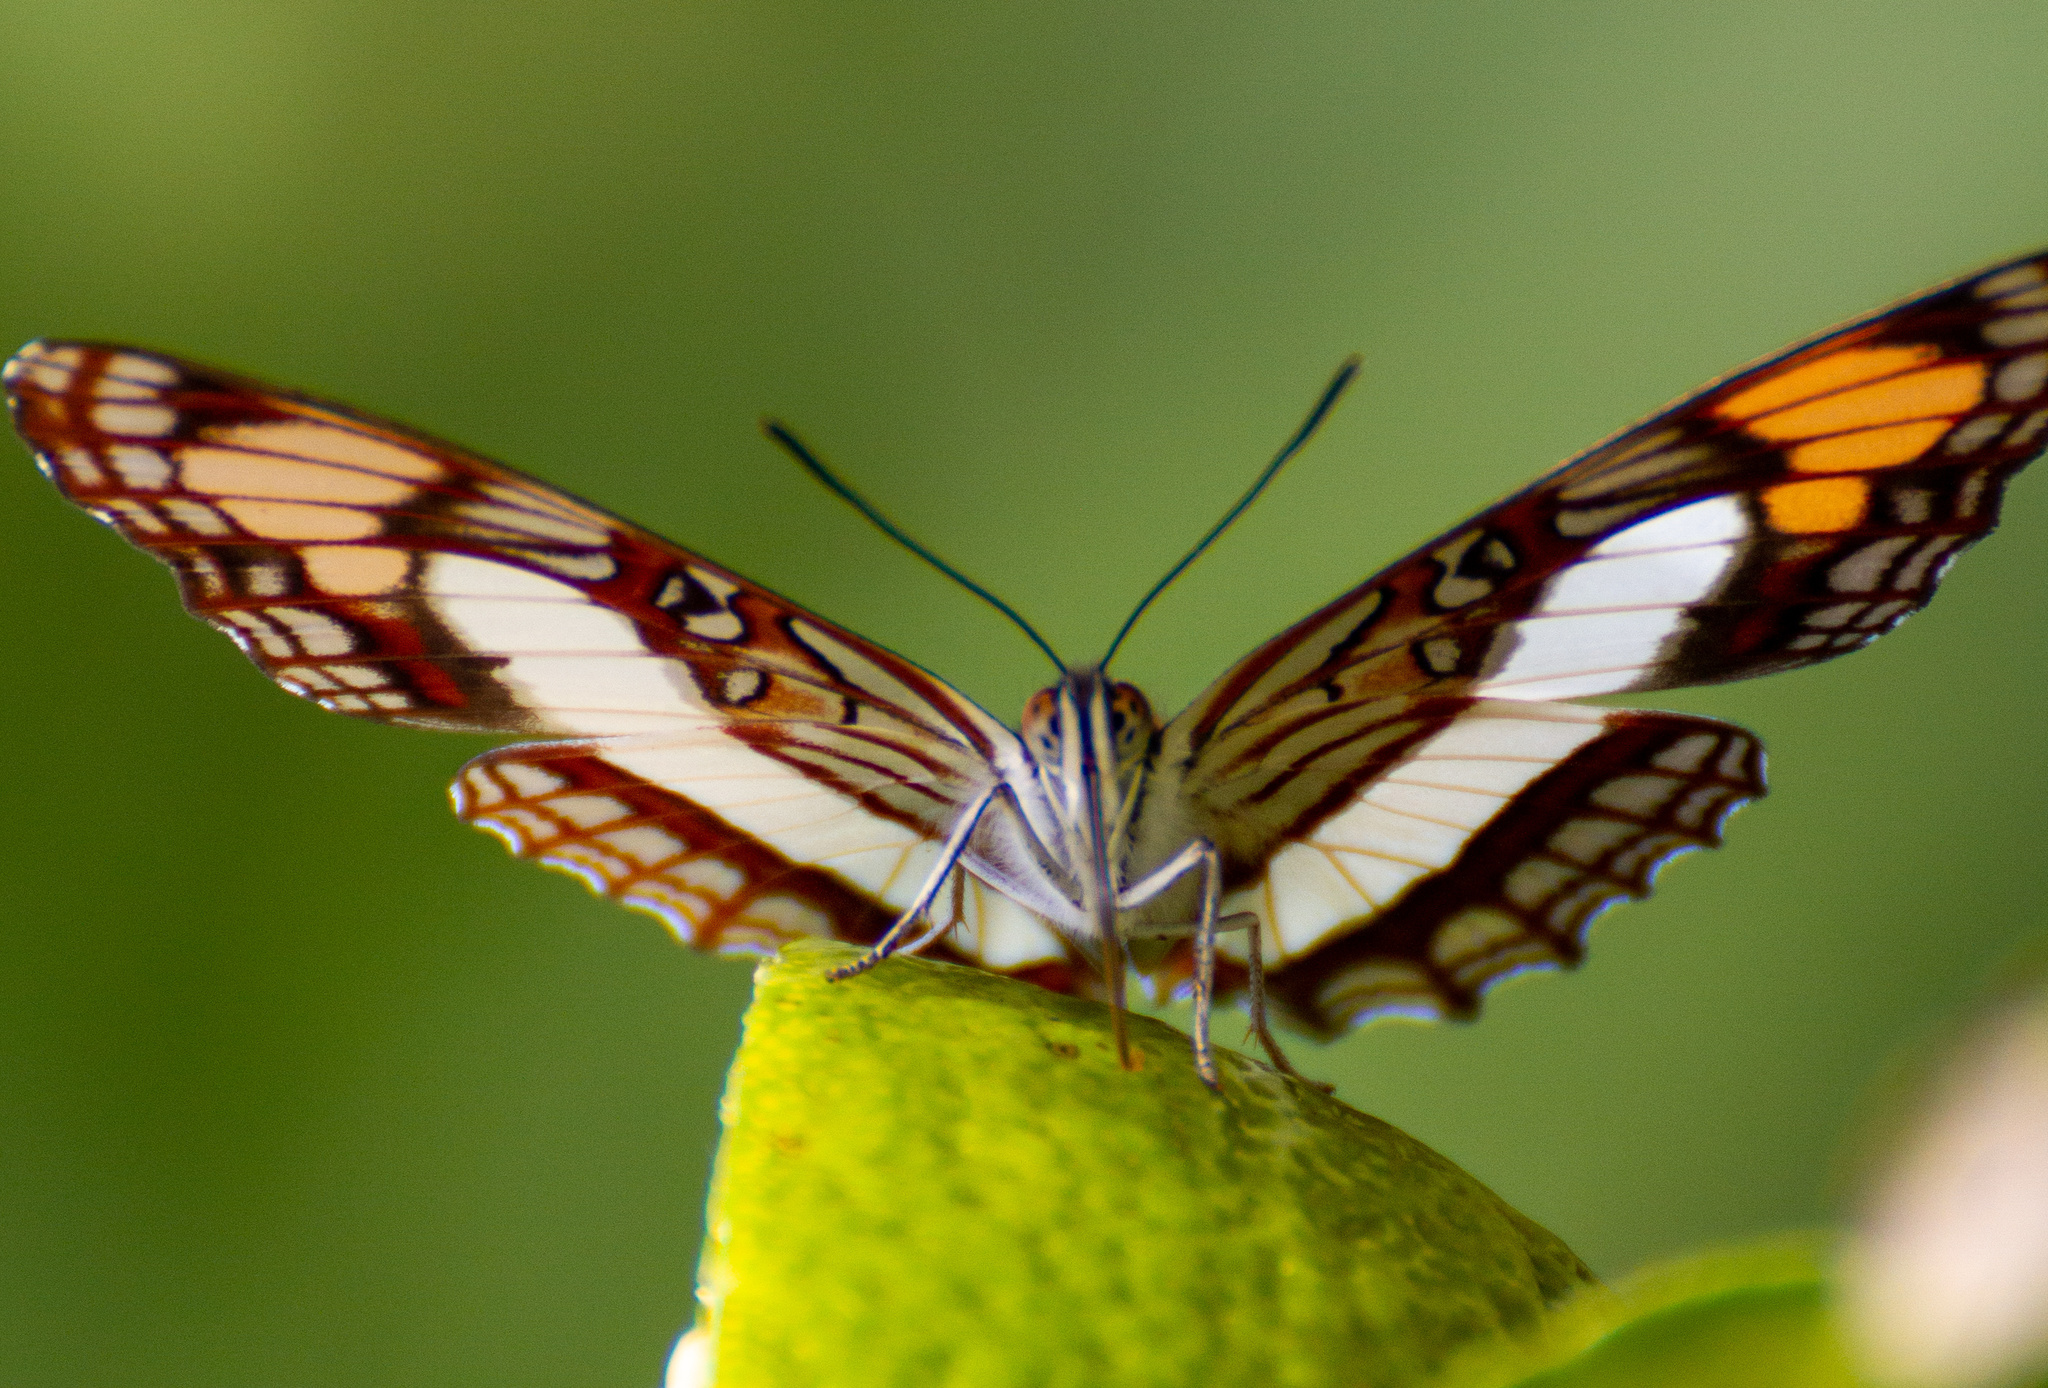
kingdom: Animalia
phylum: Arthropoda
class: Insecta
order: Lepidoptera
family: Nymphalidae
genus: Limenitis
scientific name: Limenitis paroeca
